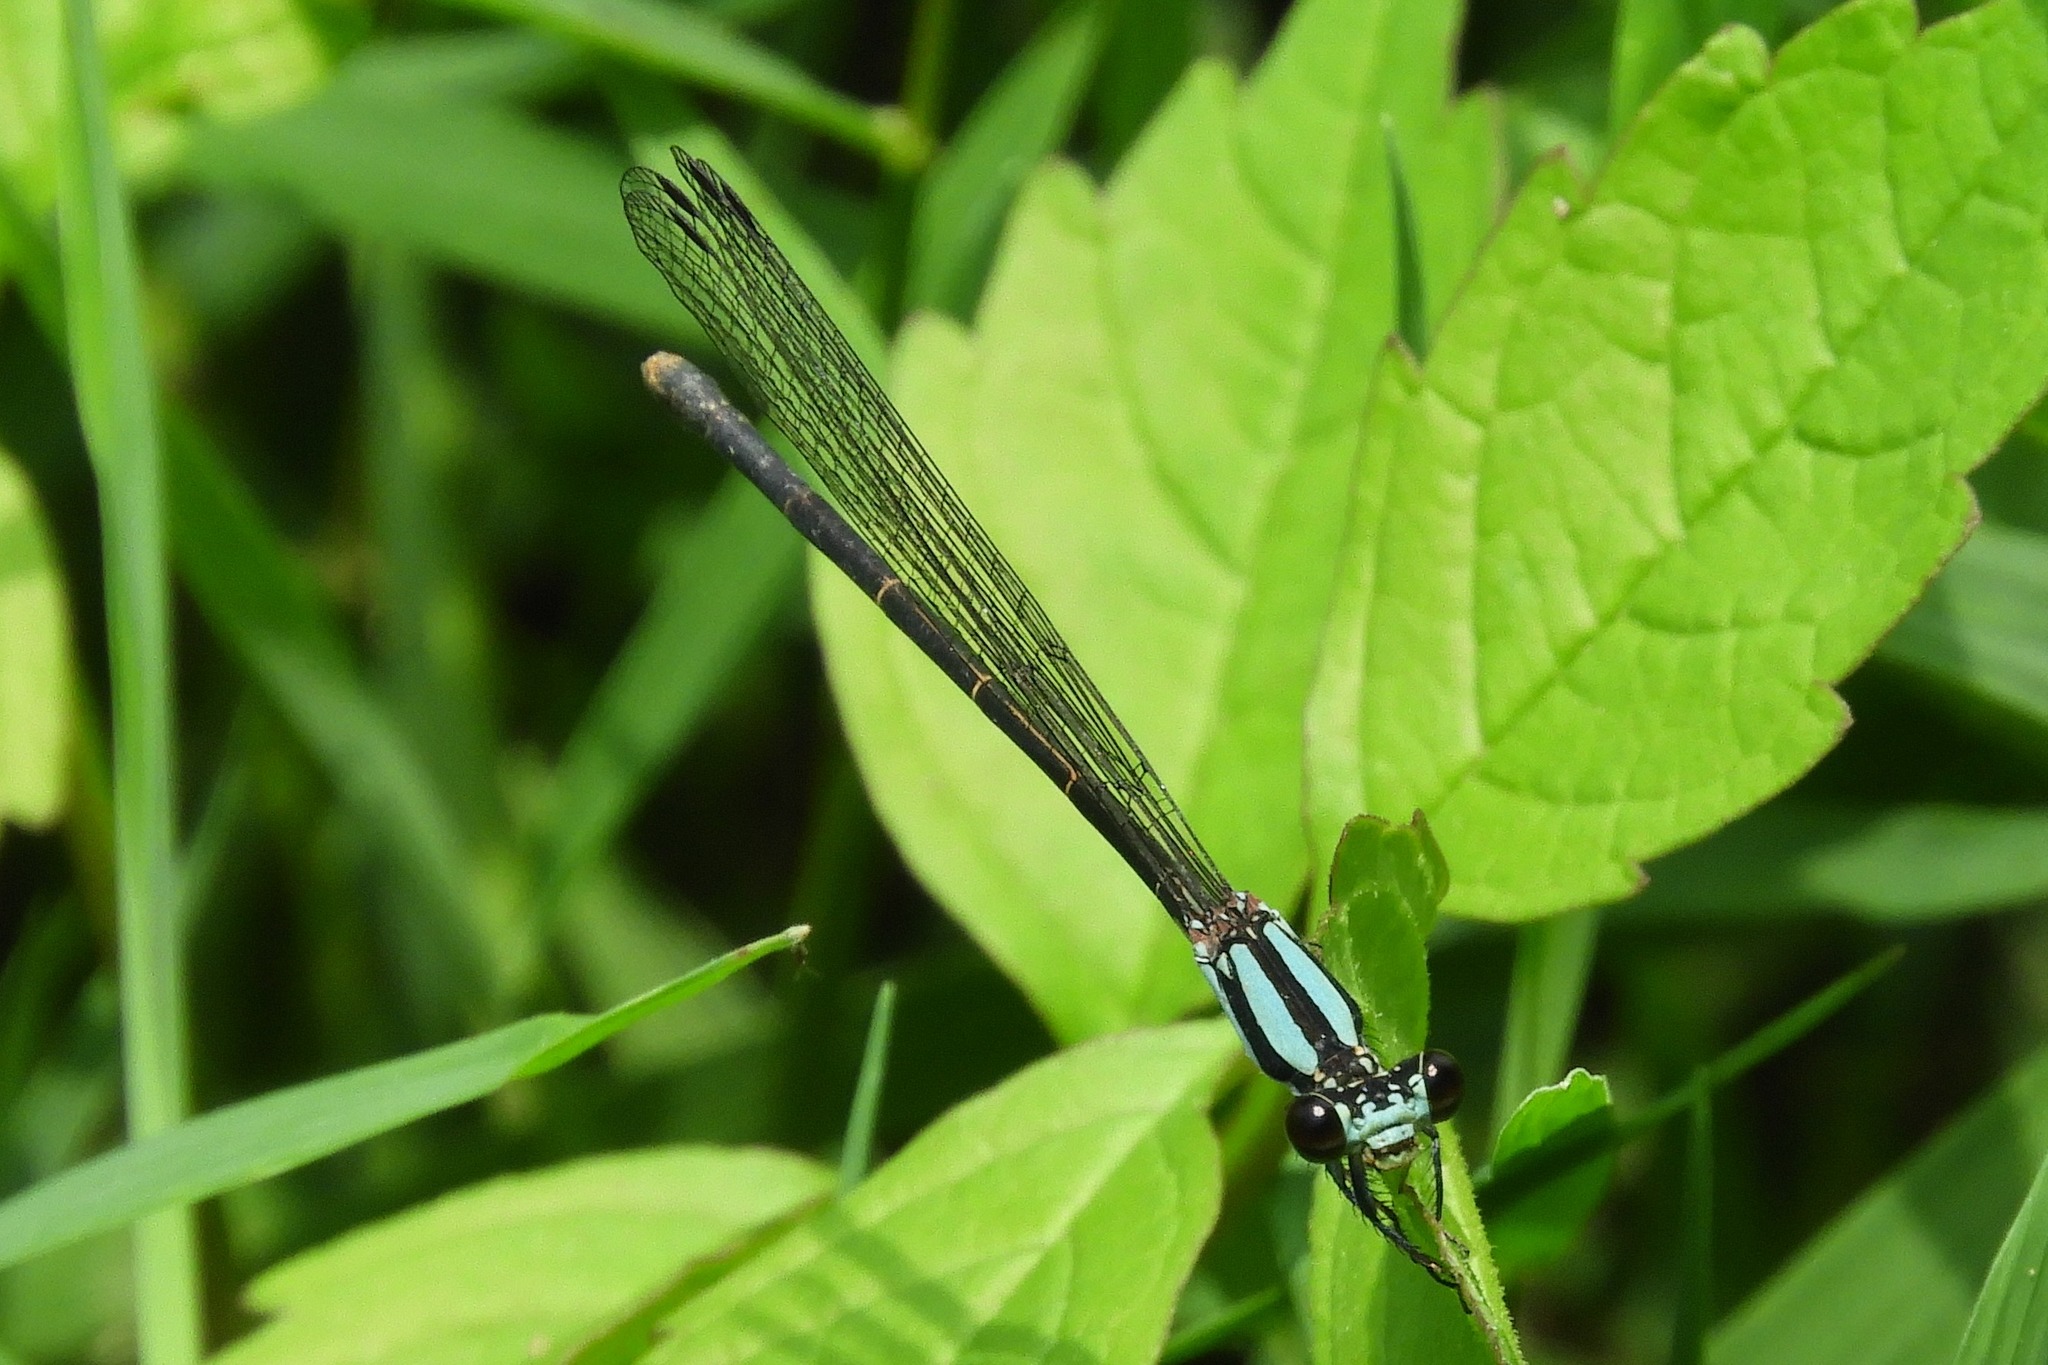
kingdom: Animalia
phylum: Arthropoda
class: Insecta
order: Odonata
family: Coenagrionidae
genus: Argia
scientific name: Argia tibialis
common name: Blue-tipped dancer
